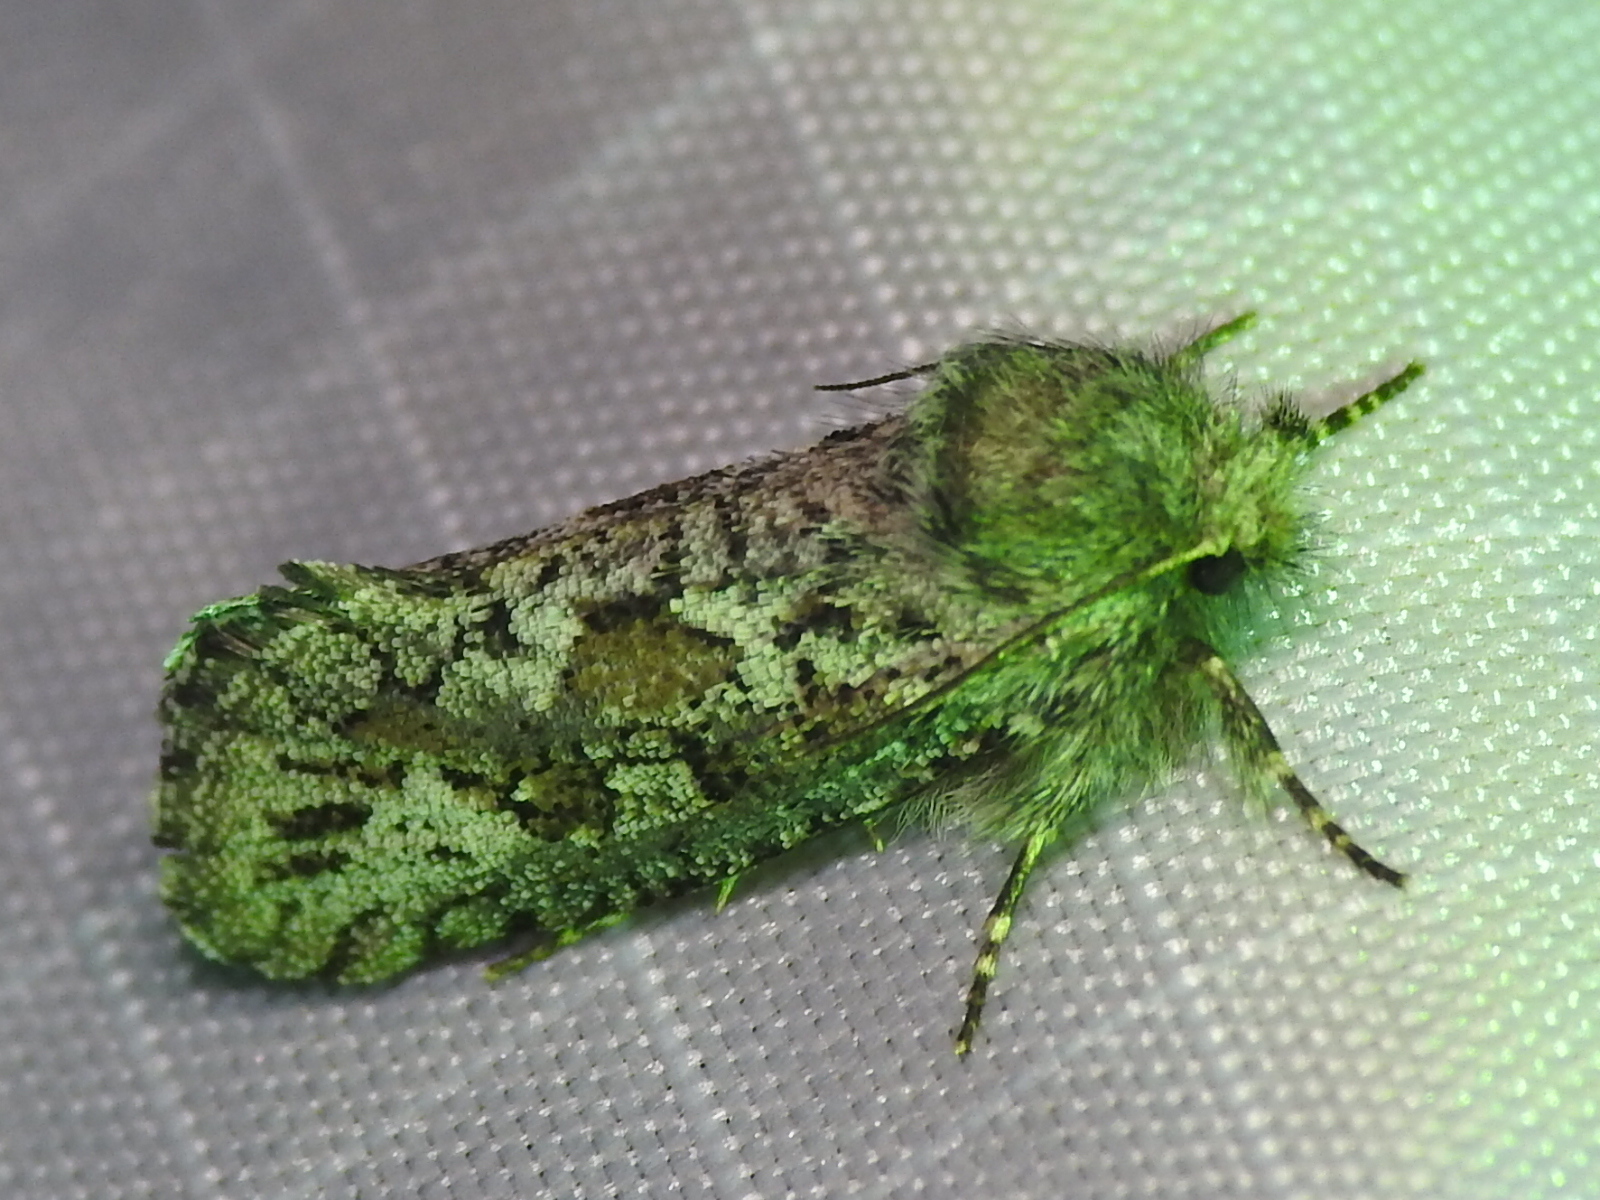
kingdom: Animalia
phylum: Arthropoda
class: Insecta
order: Lepidoptera
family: Tineidae
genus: Acrolophus
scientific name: Acrolophus
